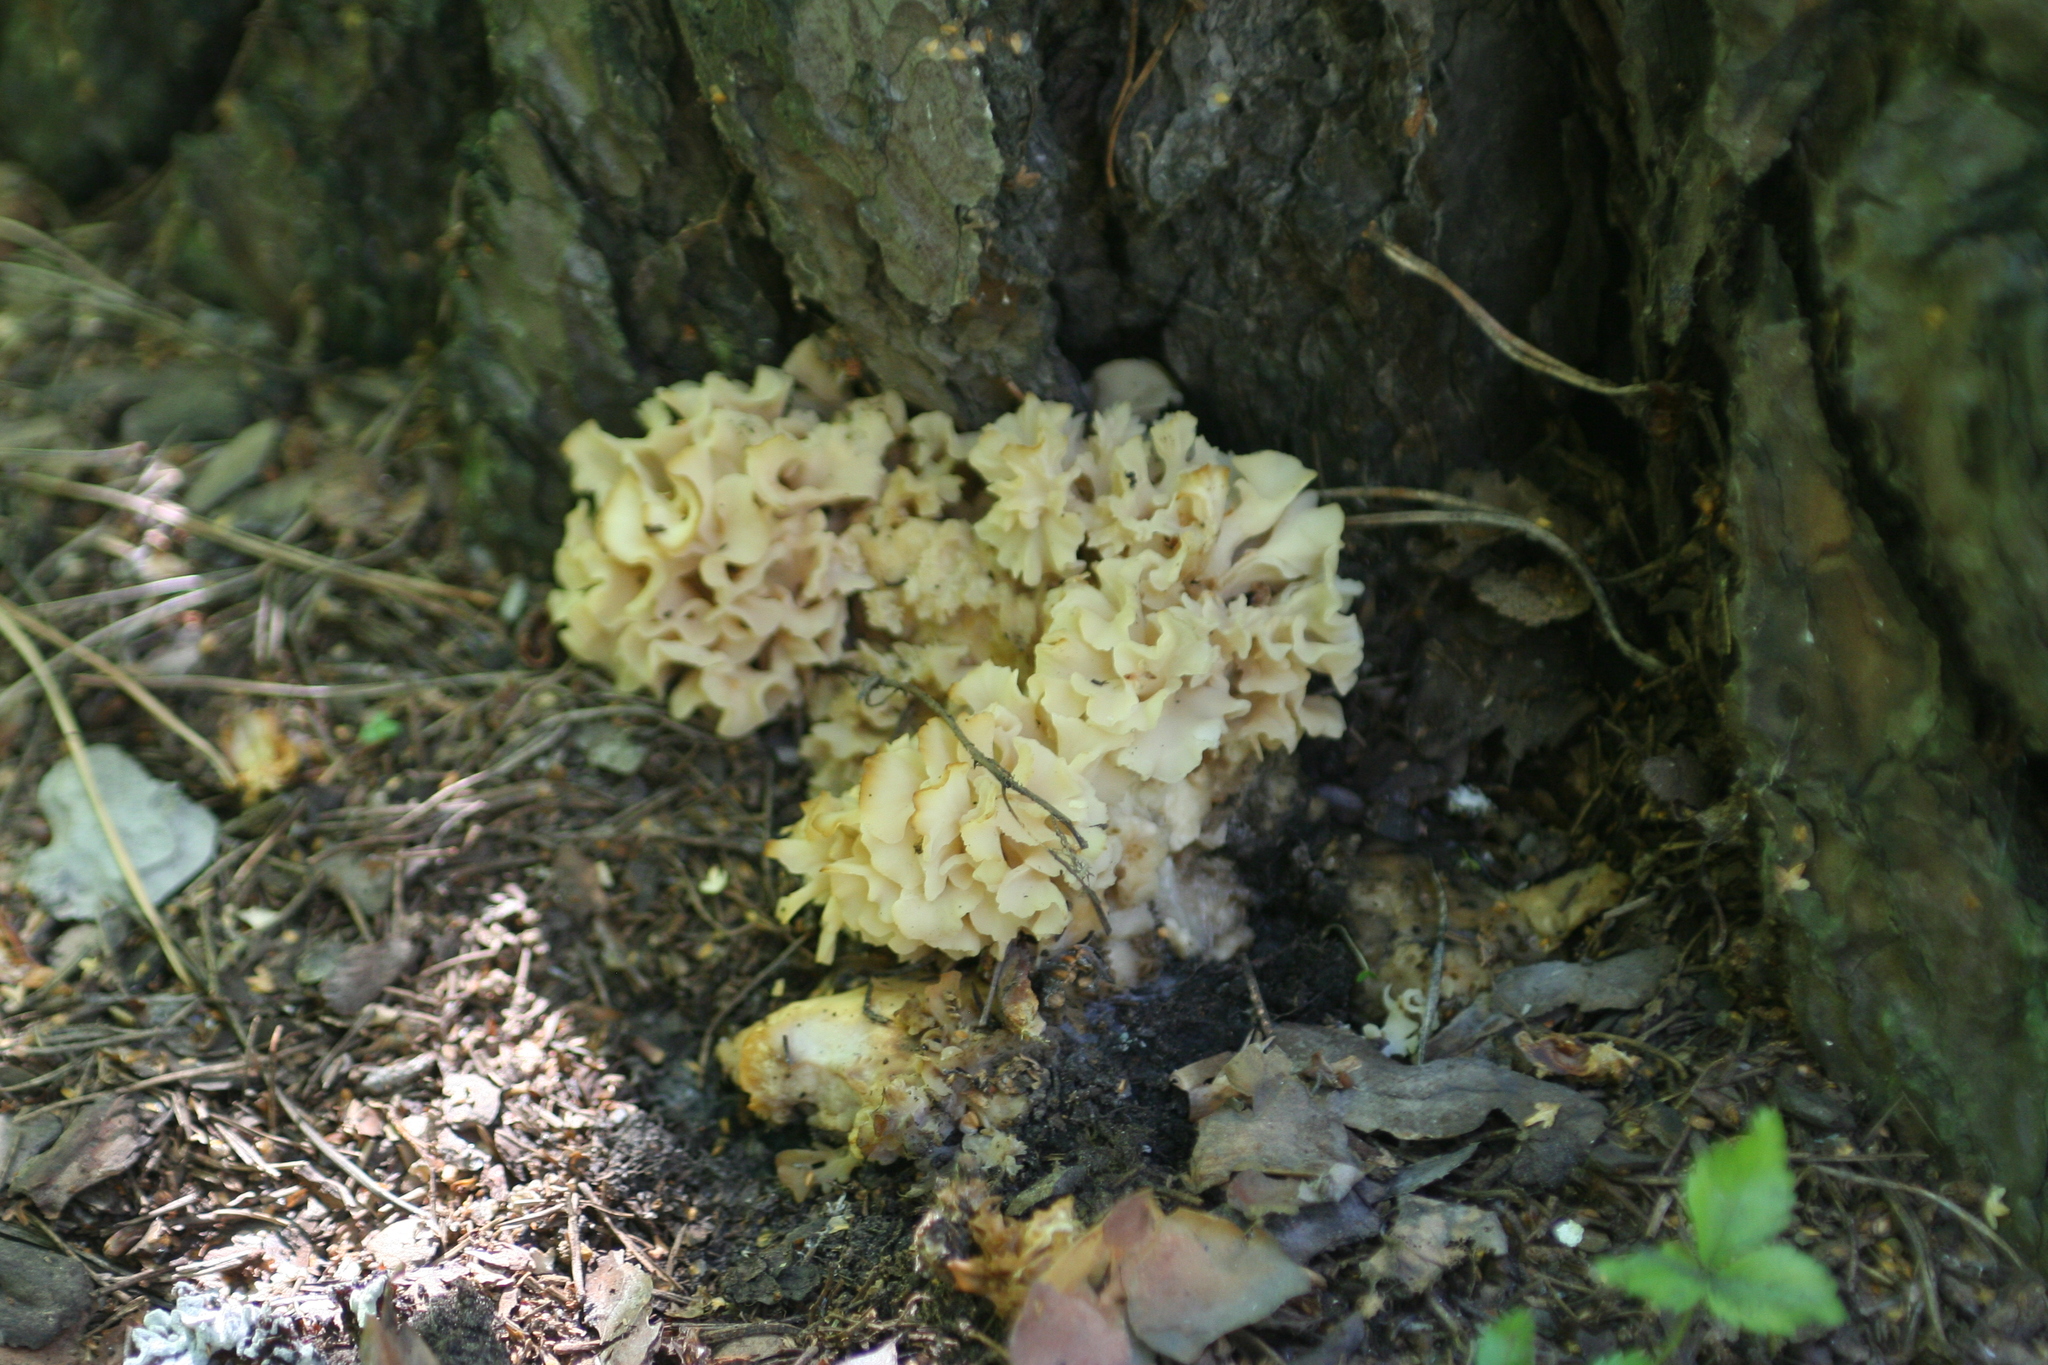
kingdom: Fungi
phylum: Basidiomycota
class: Agaricomycetes
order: Polyporales
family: Sparassidaceae
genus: Sparassis
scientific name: Sparassis crispa
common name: Brain fungus
